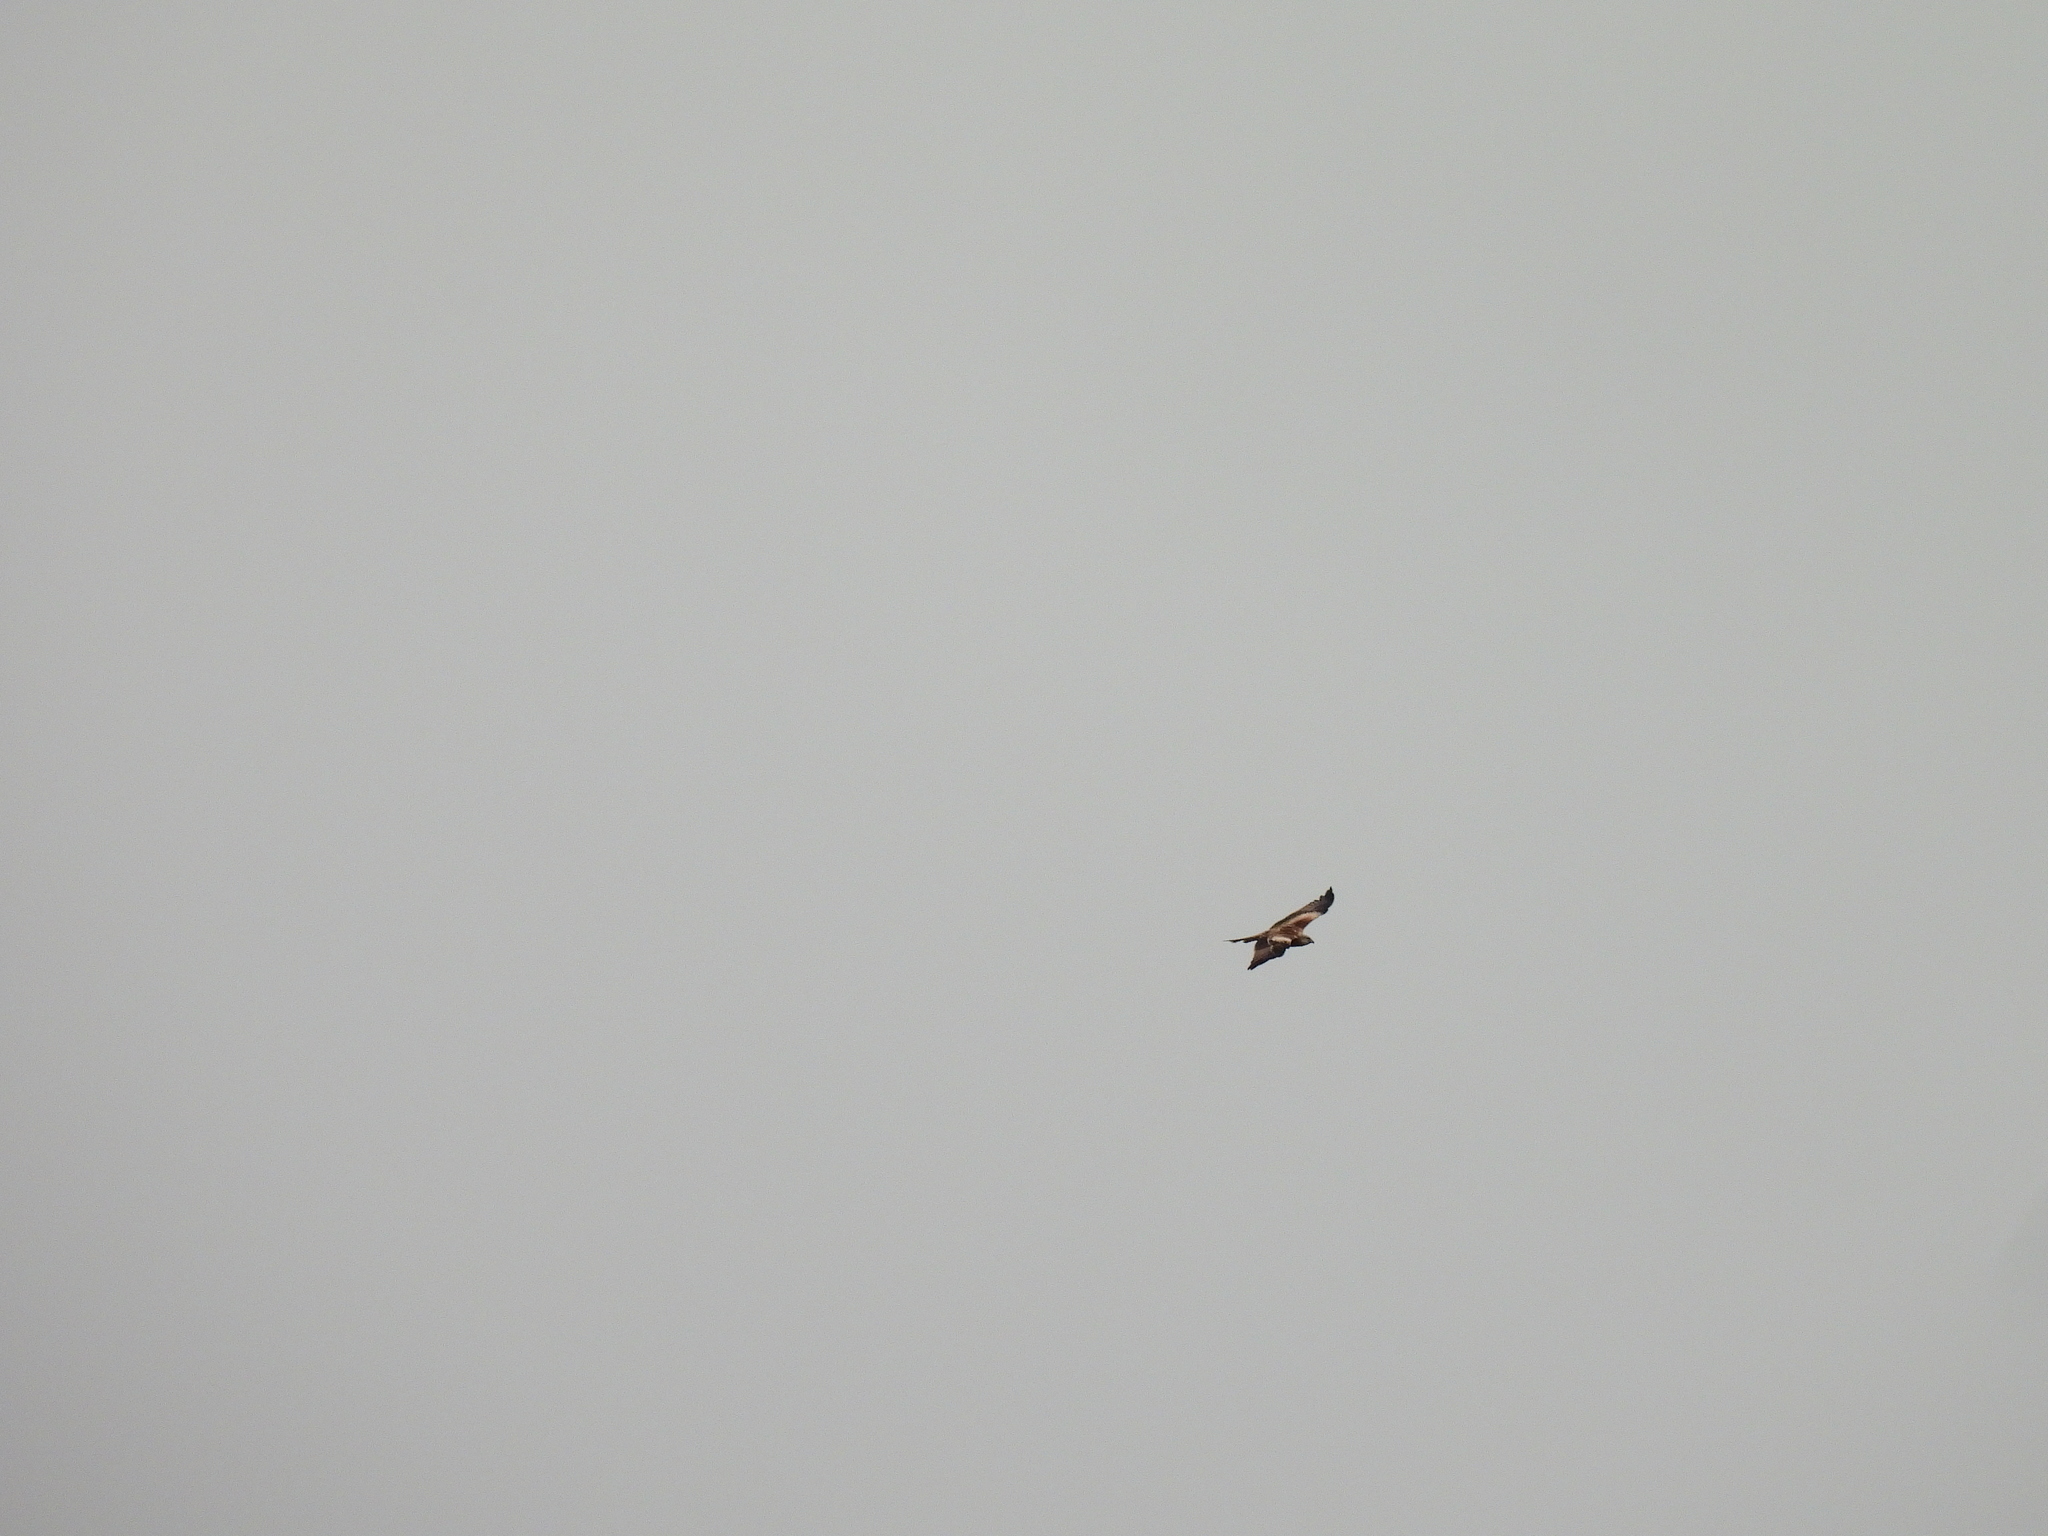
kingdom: Animalia
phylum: Chordata
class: Aves
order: Accipitriformes
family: Accipitridae
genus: Milvus
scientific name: Milvus milvus
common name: Red kite
